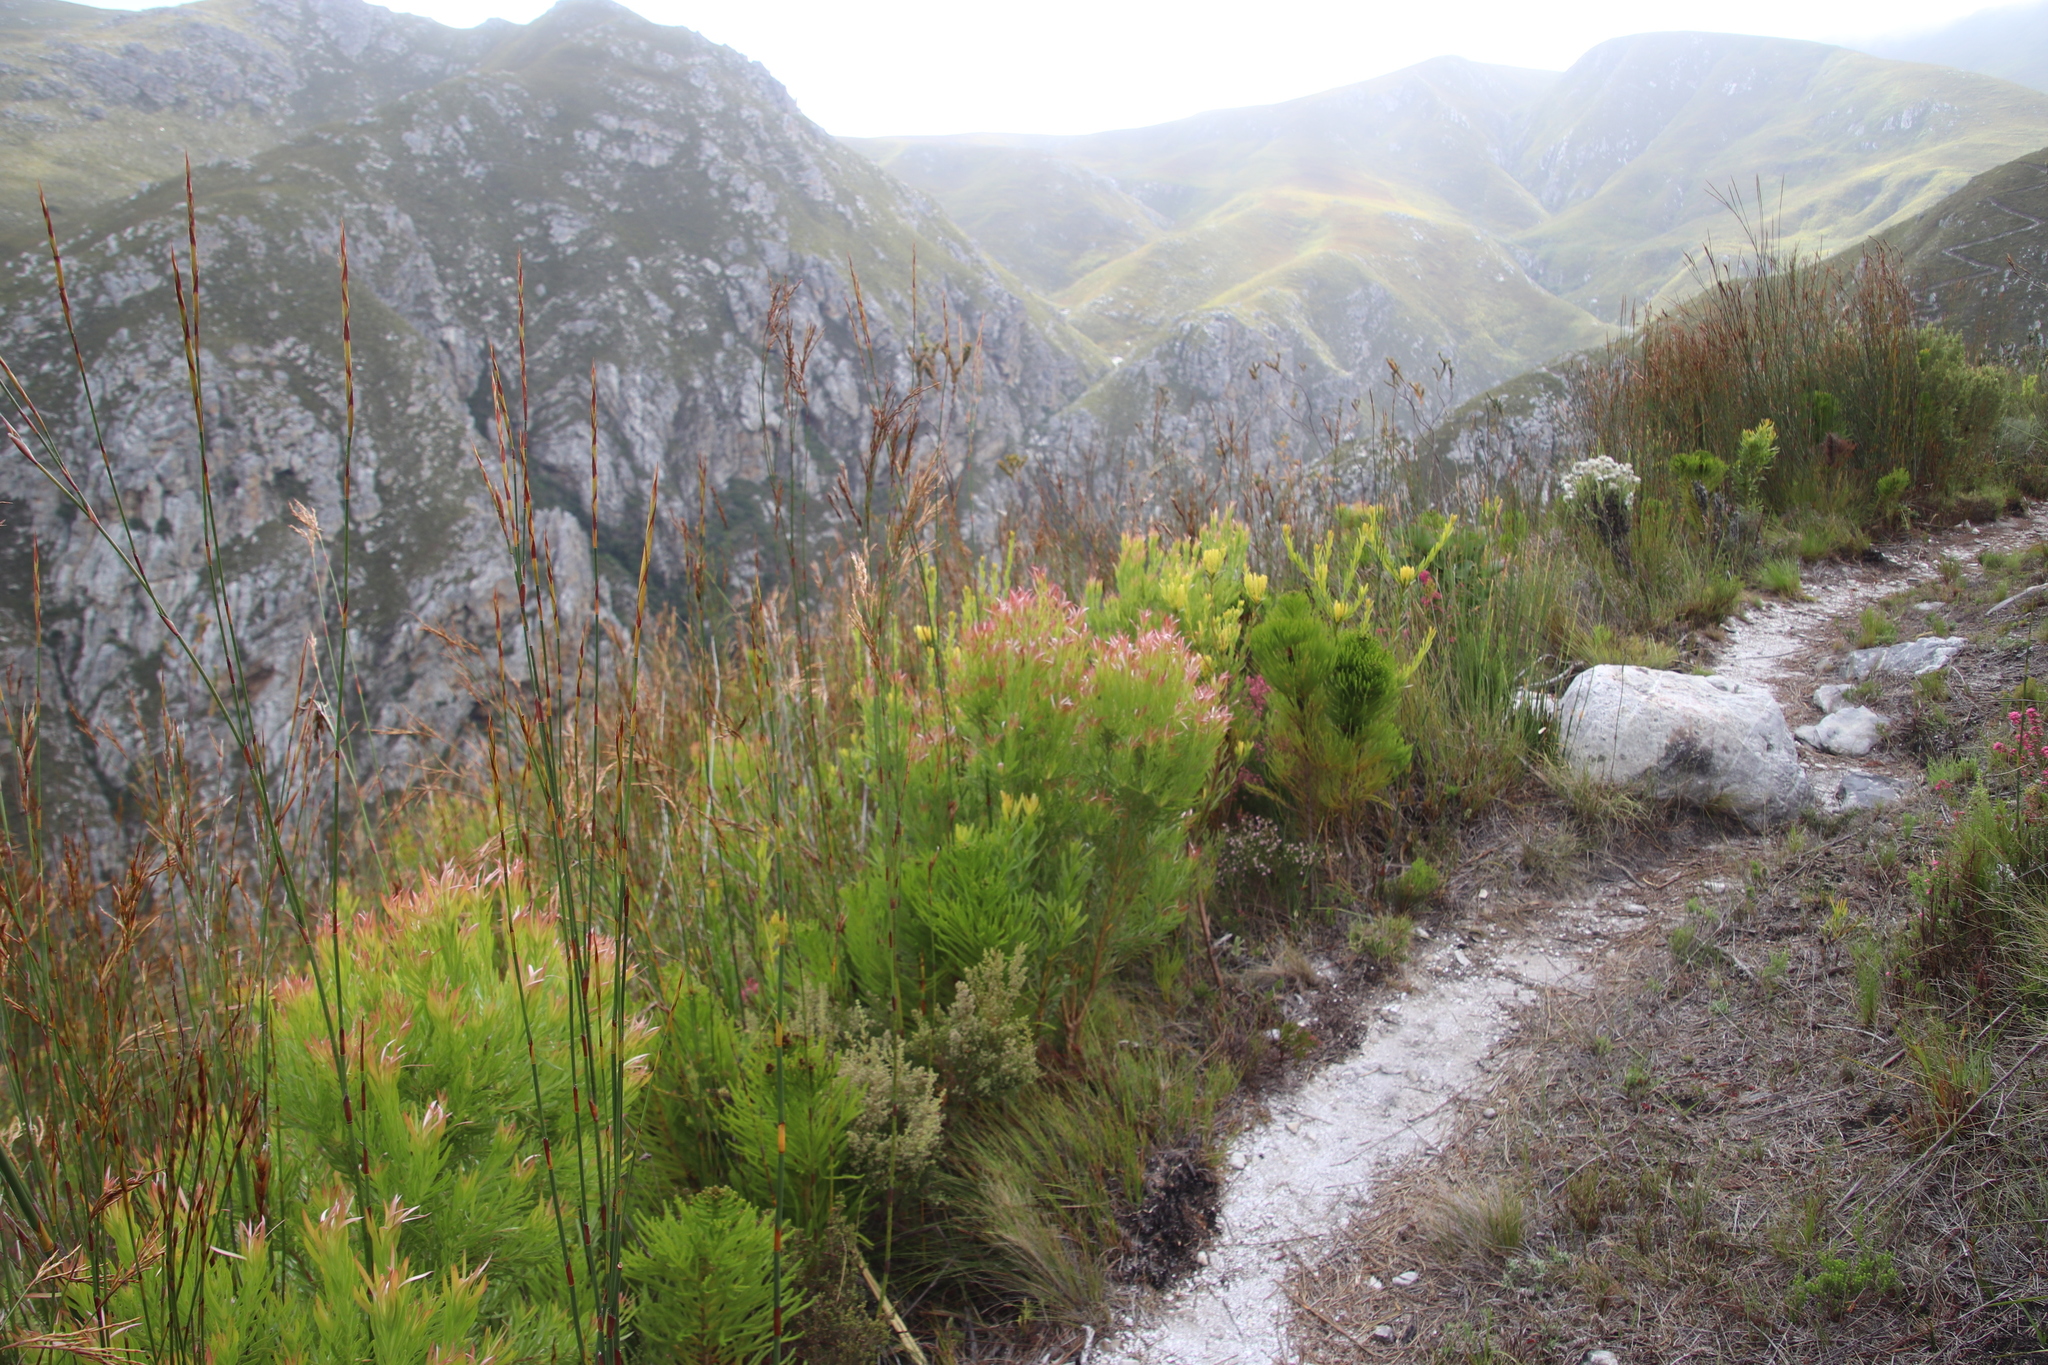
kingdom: Plantae
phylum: Tracheophyta
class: Magnoliopsida
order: Proteales
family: Proteaceae
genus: Leucadendron
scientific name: Leucadendron xanthoconus
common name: Sickle-leaf conebush
